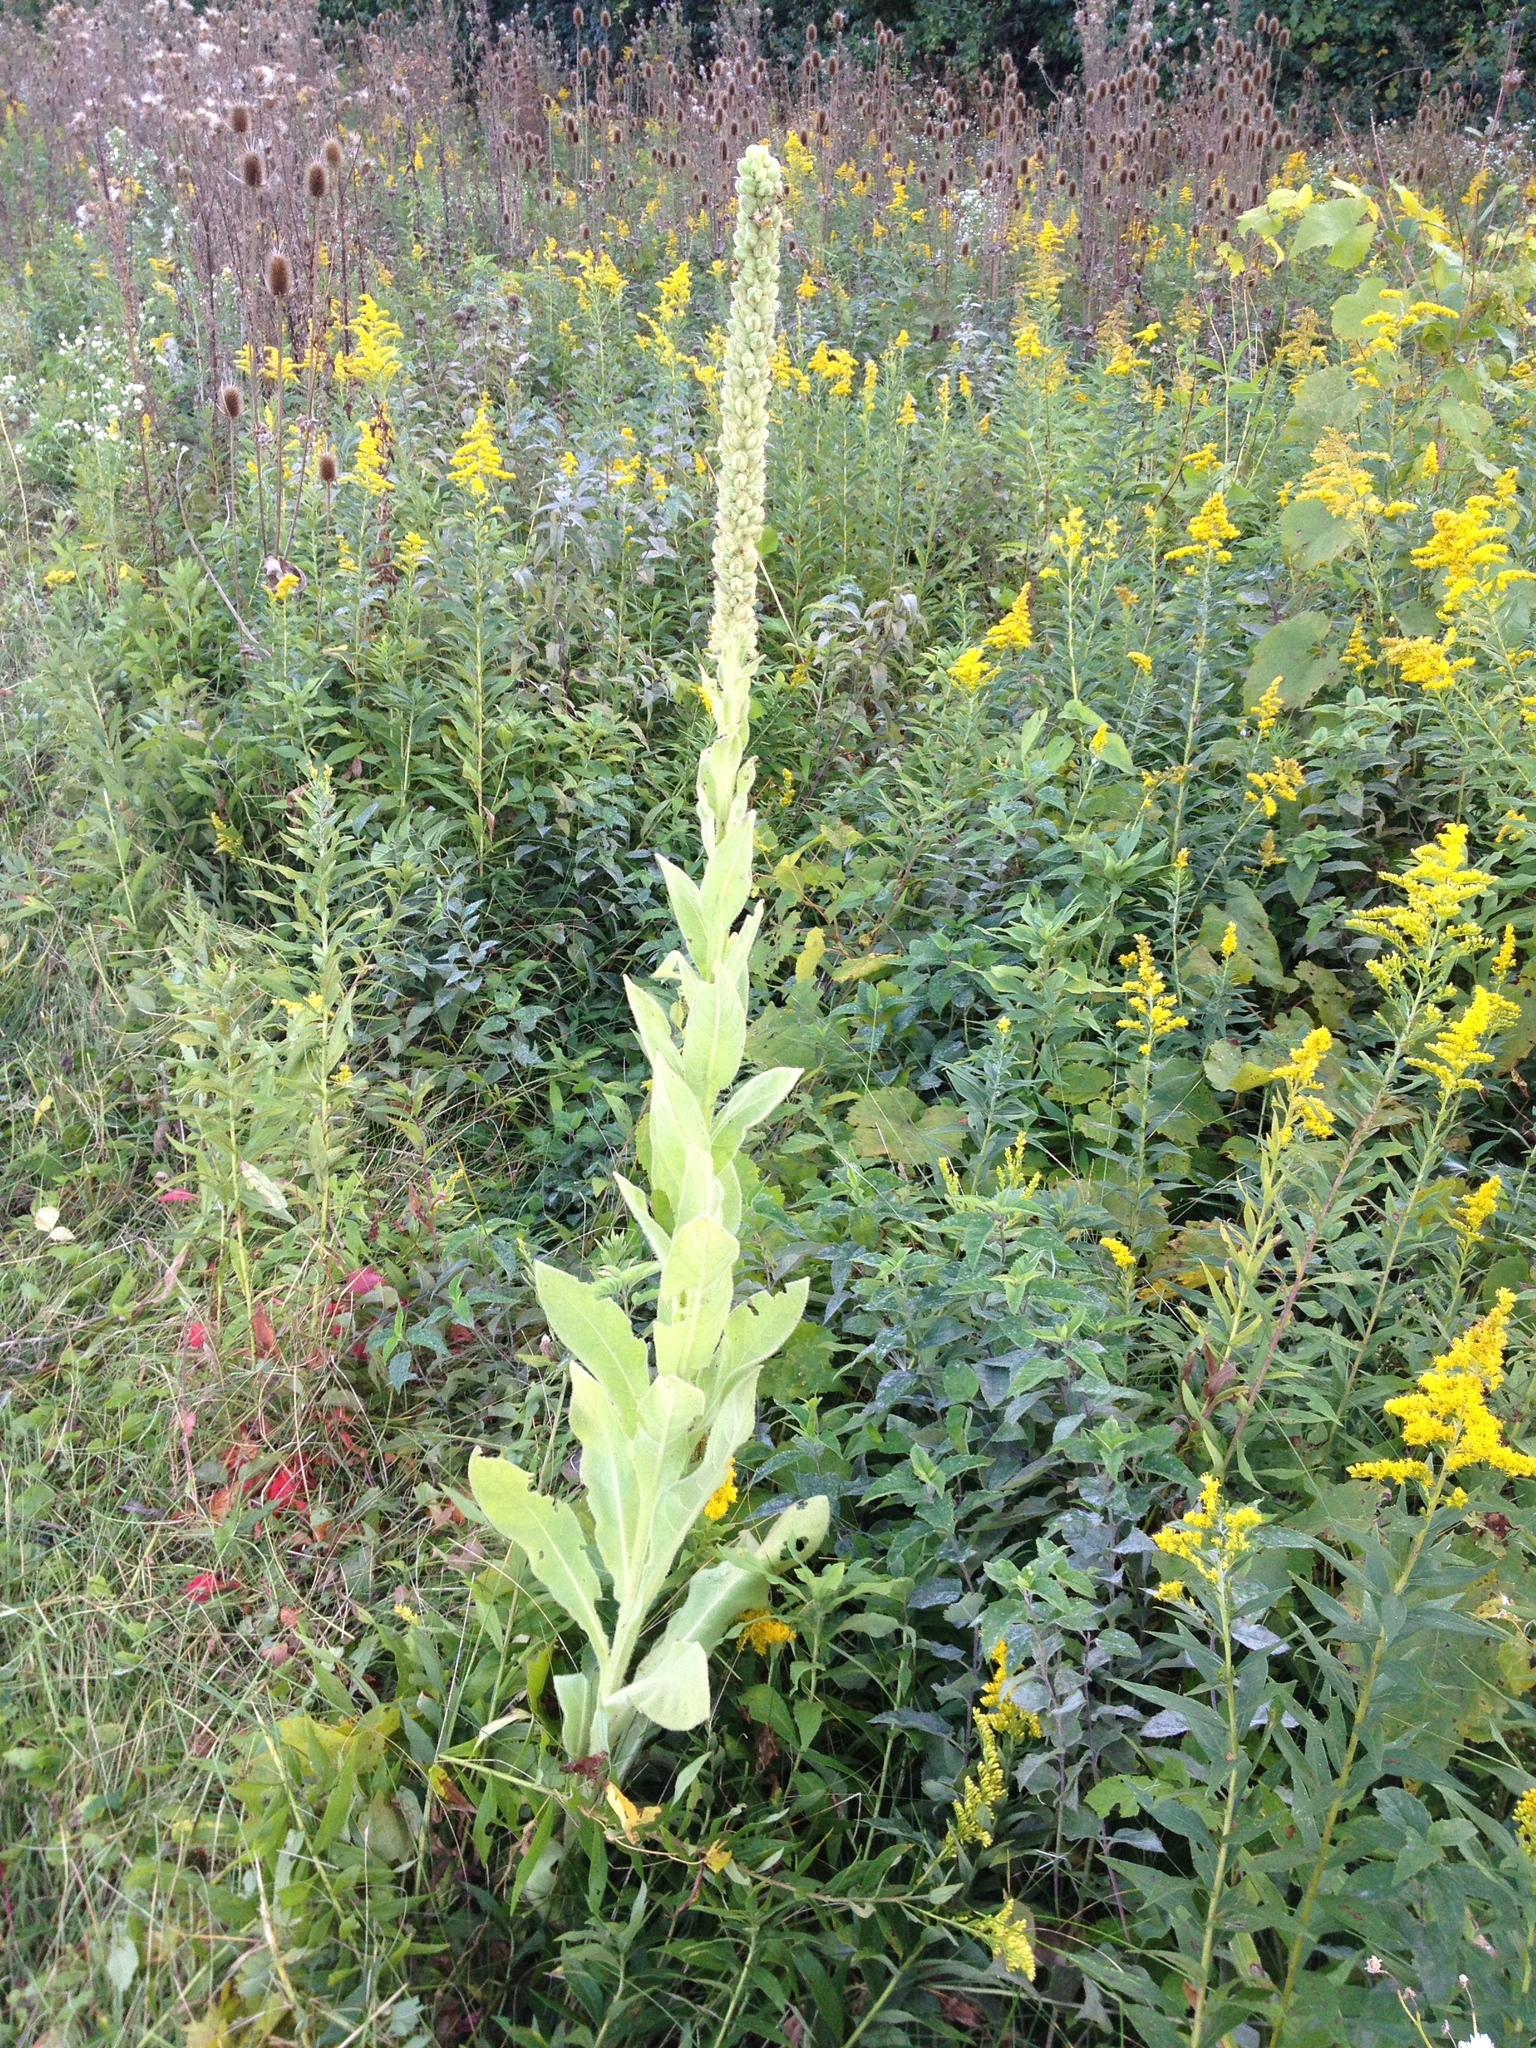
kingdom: Plantae
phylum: Tracheophyta
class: Magnoliopsida
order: Lamiales
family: Scrophulariaceae
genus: Verbascum
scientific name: Verbascum thapsus
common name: Common mullein
